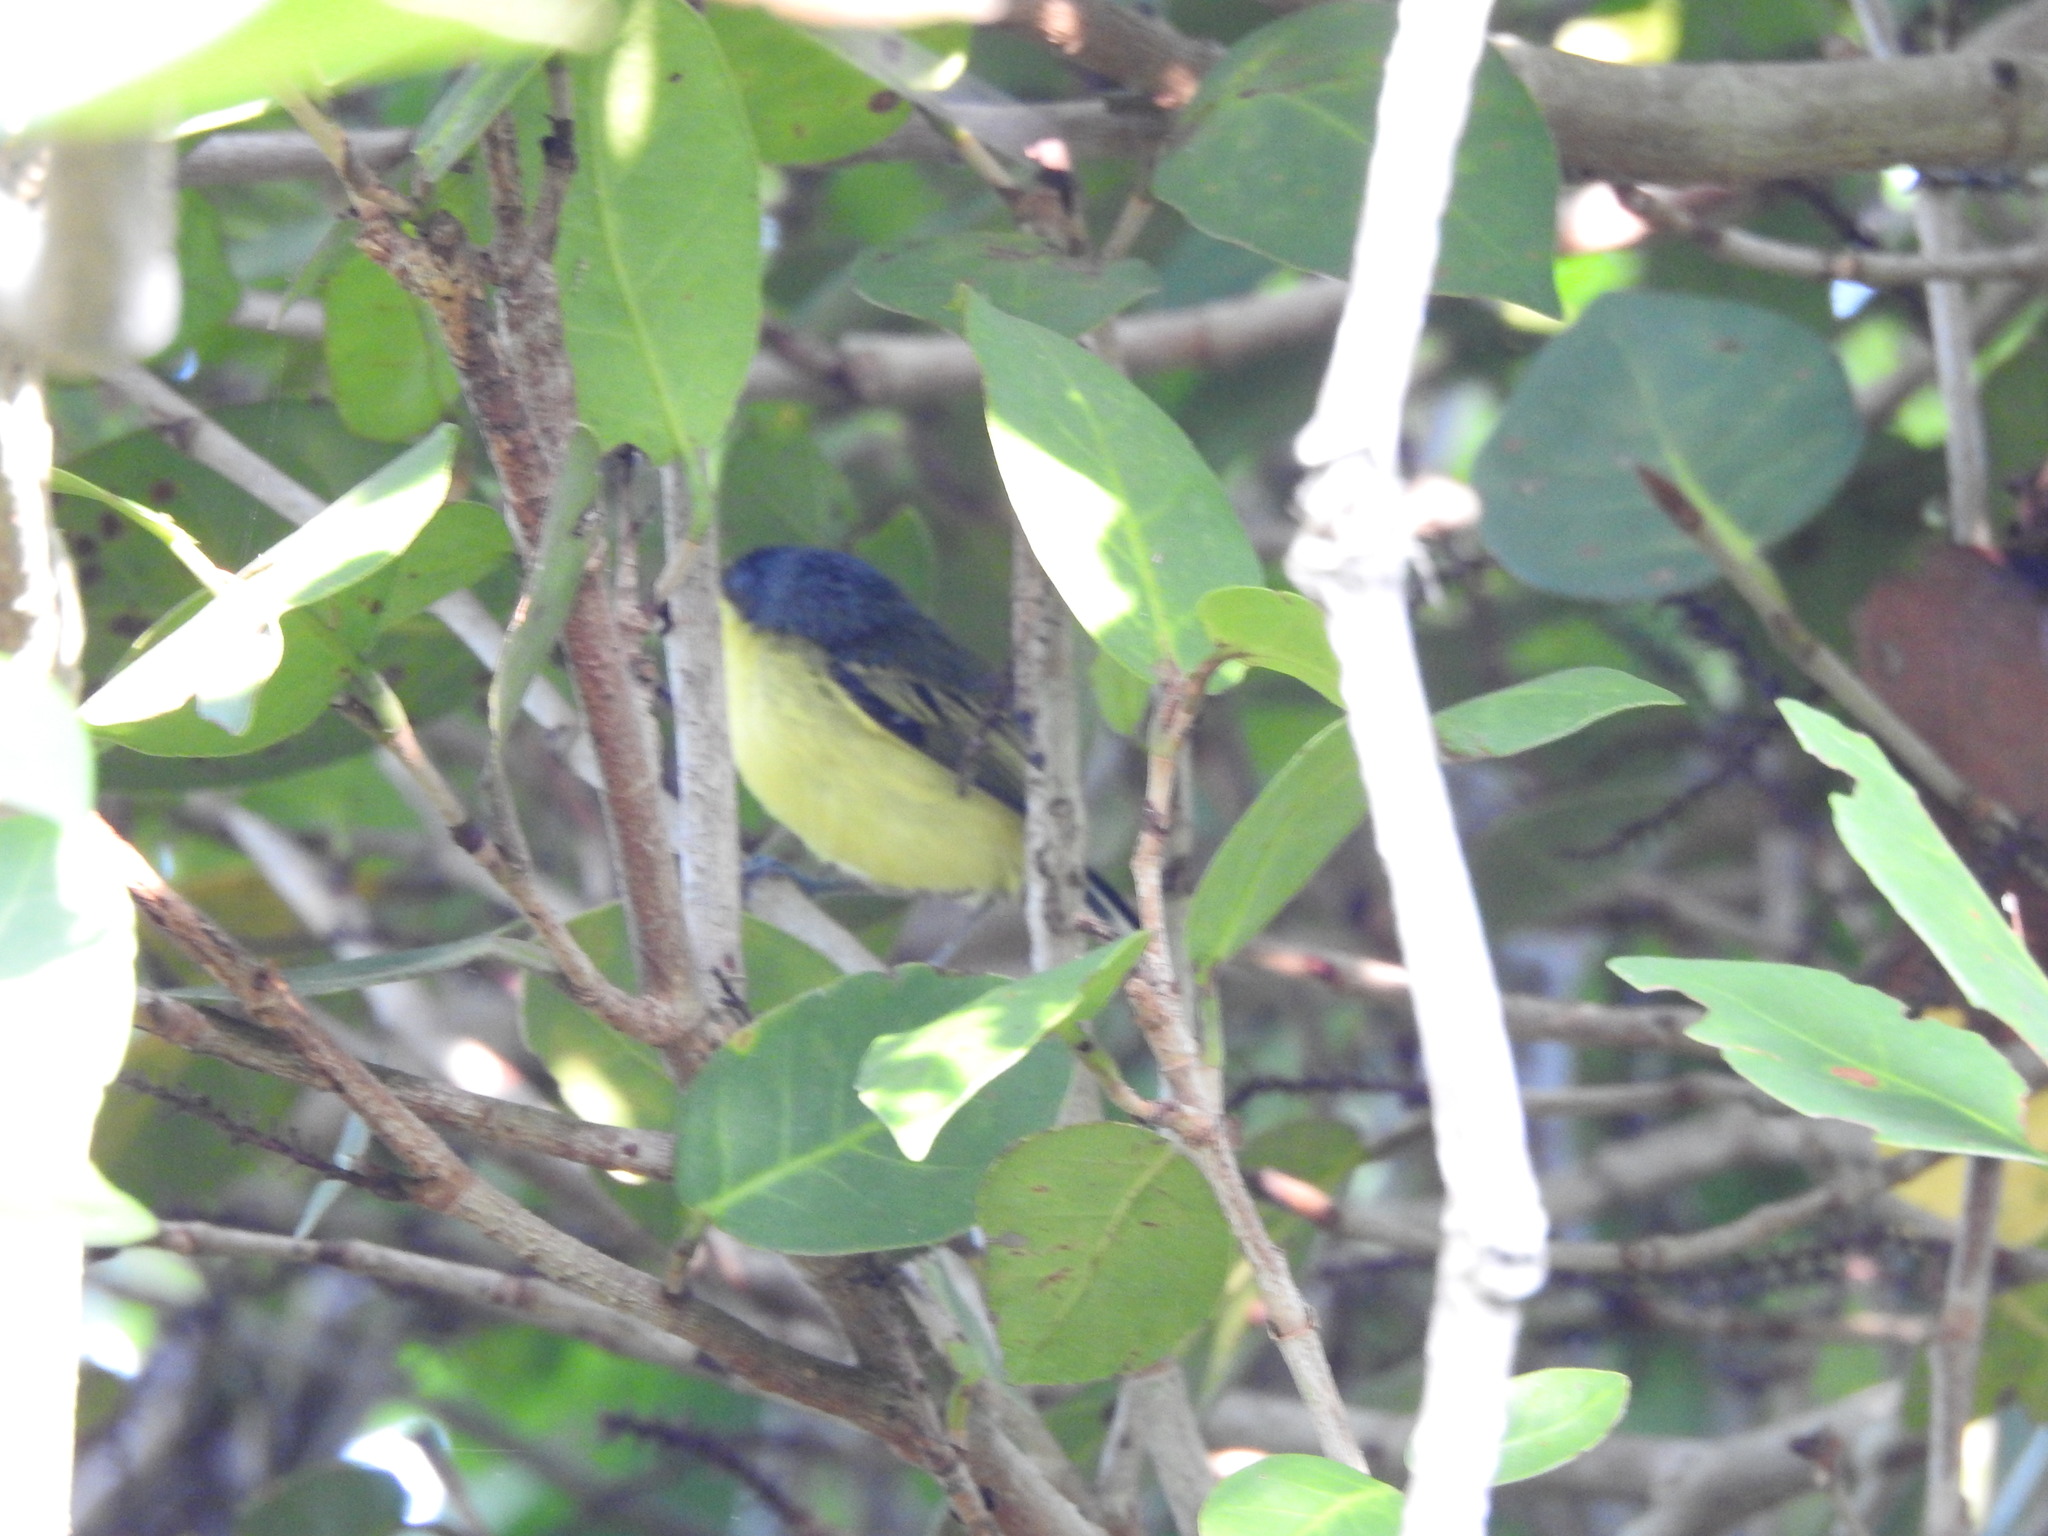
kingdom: Animalia
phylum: Chordata
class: Aves
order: Passeriformes
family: Tyrannidae
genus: Todirostrum
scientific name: Todirostrum cinereum
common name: Common tody-flycatcher
